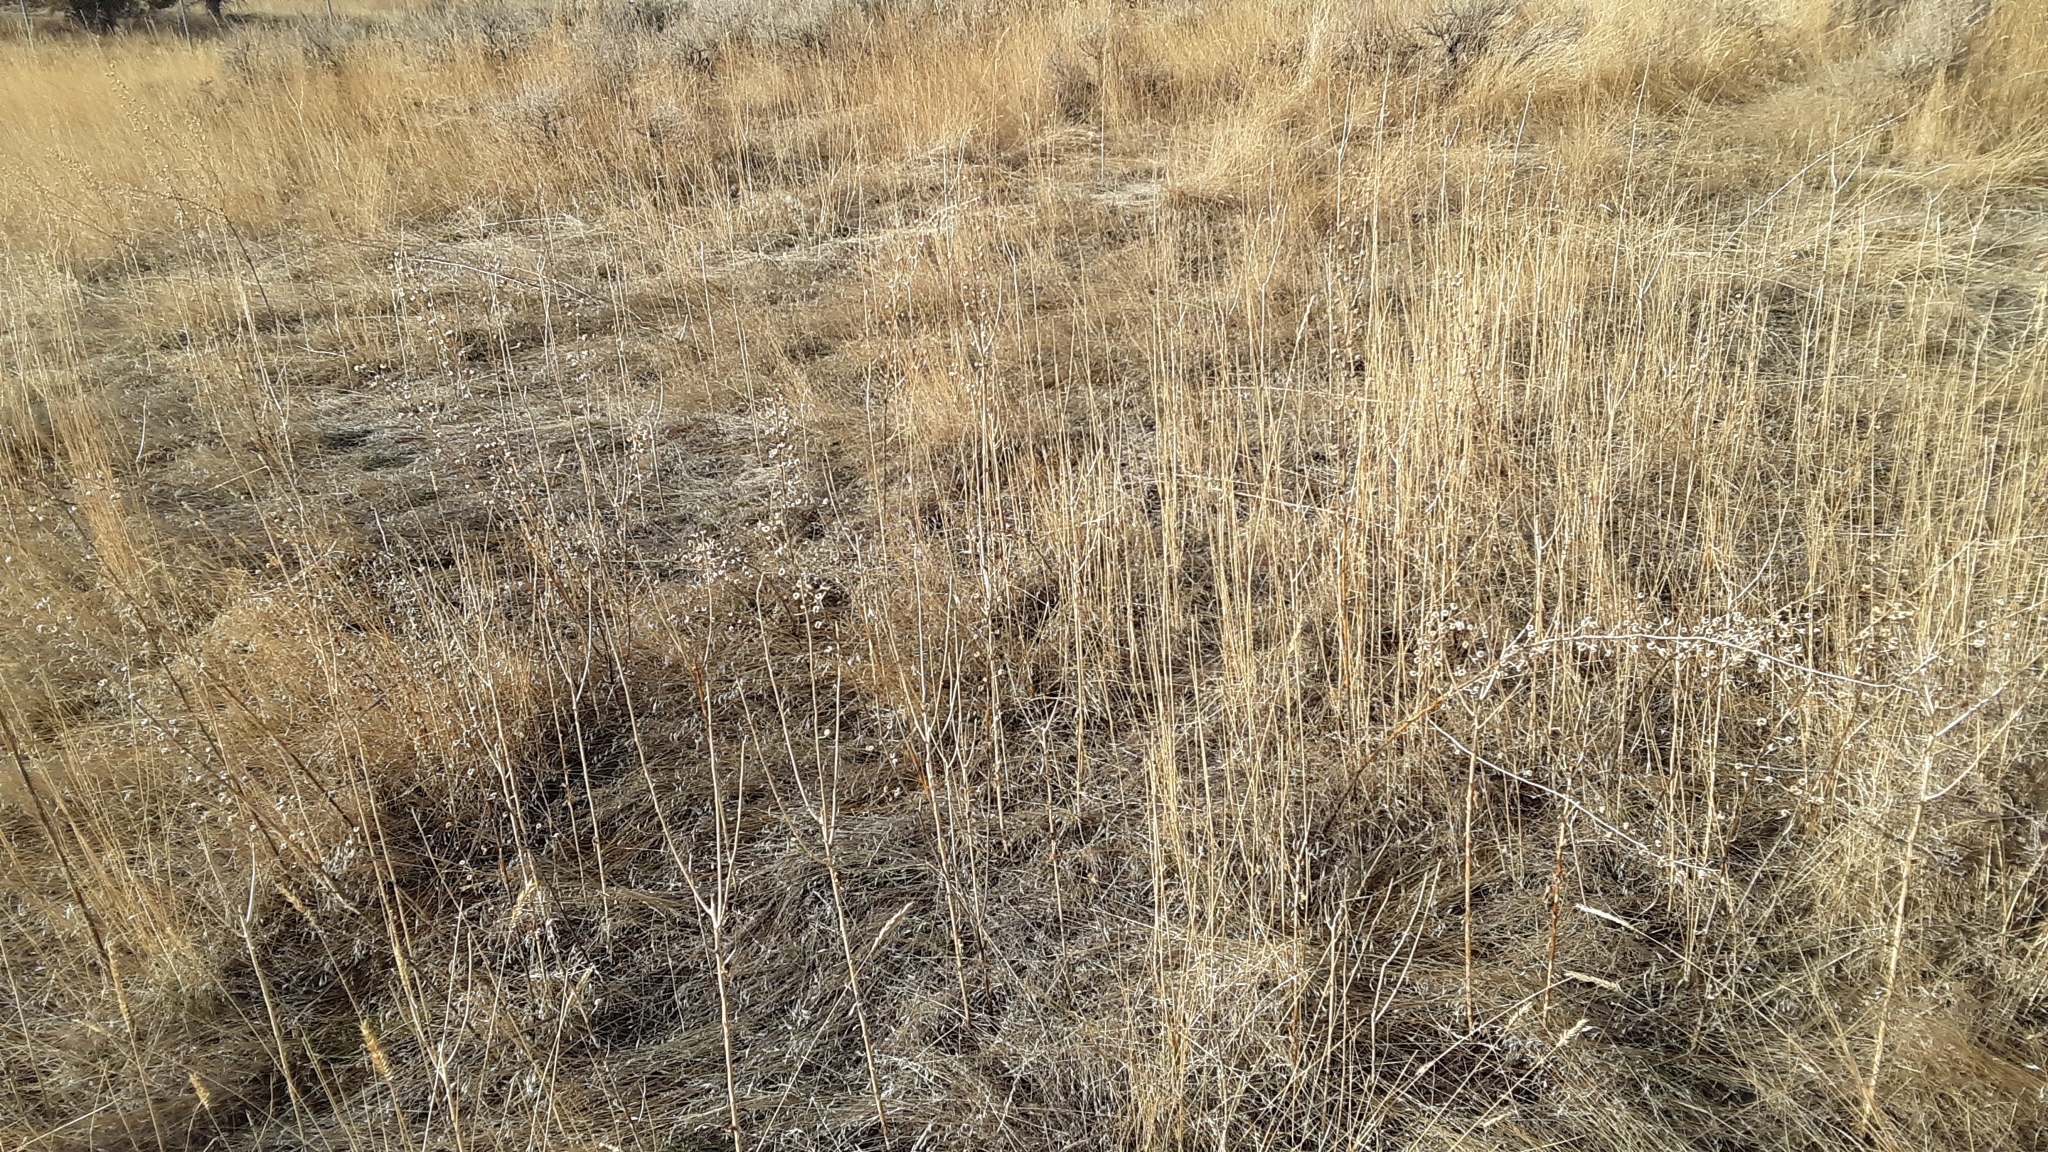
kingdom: Plantae
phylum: Tracheophyta
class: Magnoliopsida
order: Lamiales
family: Scrophulariaceae
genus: Verbascum
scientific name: Verbascum blattaria
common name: Moth mullein
